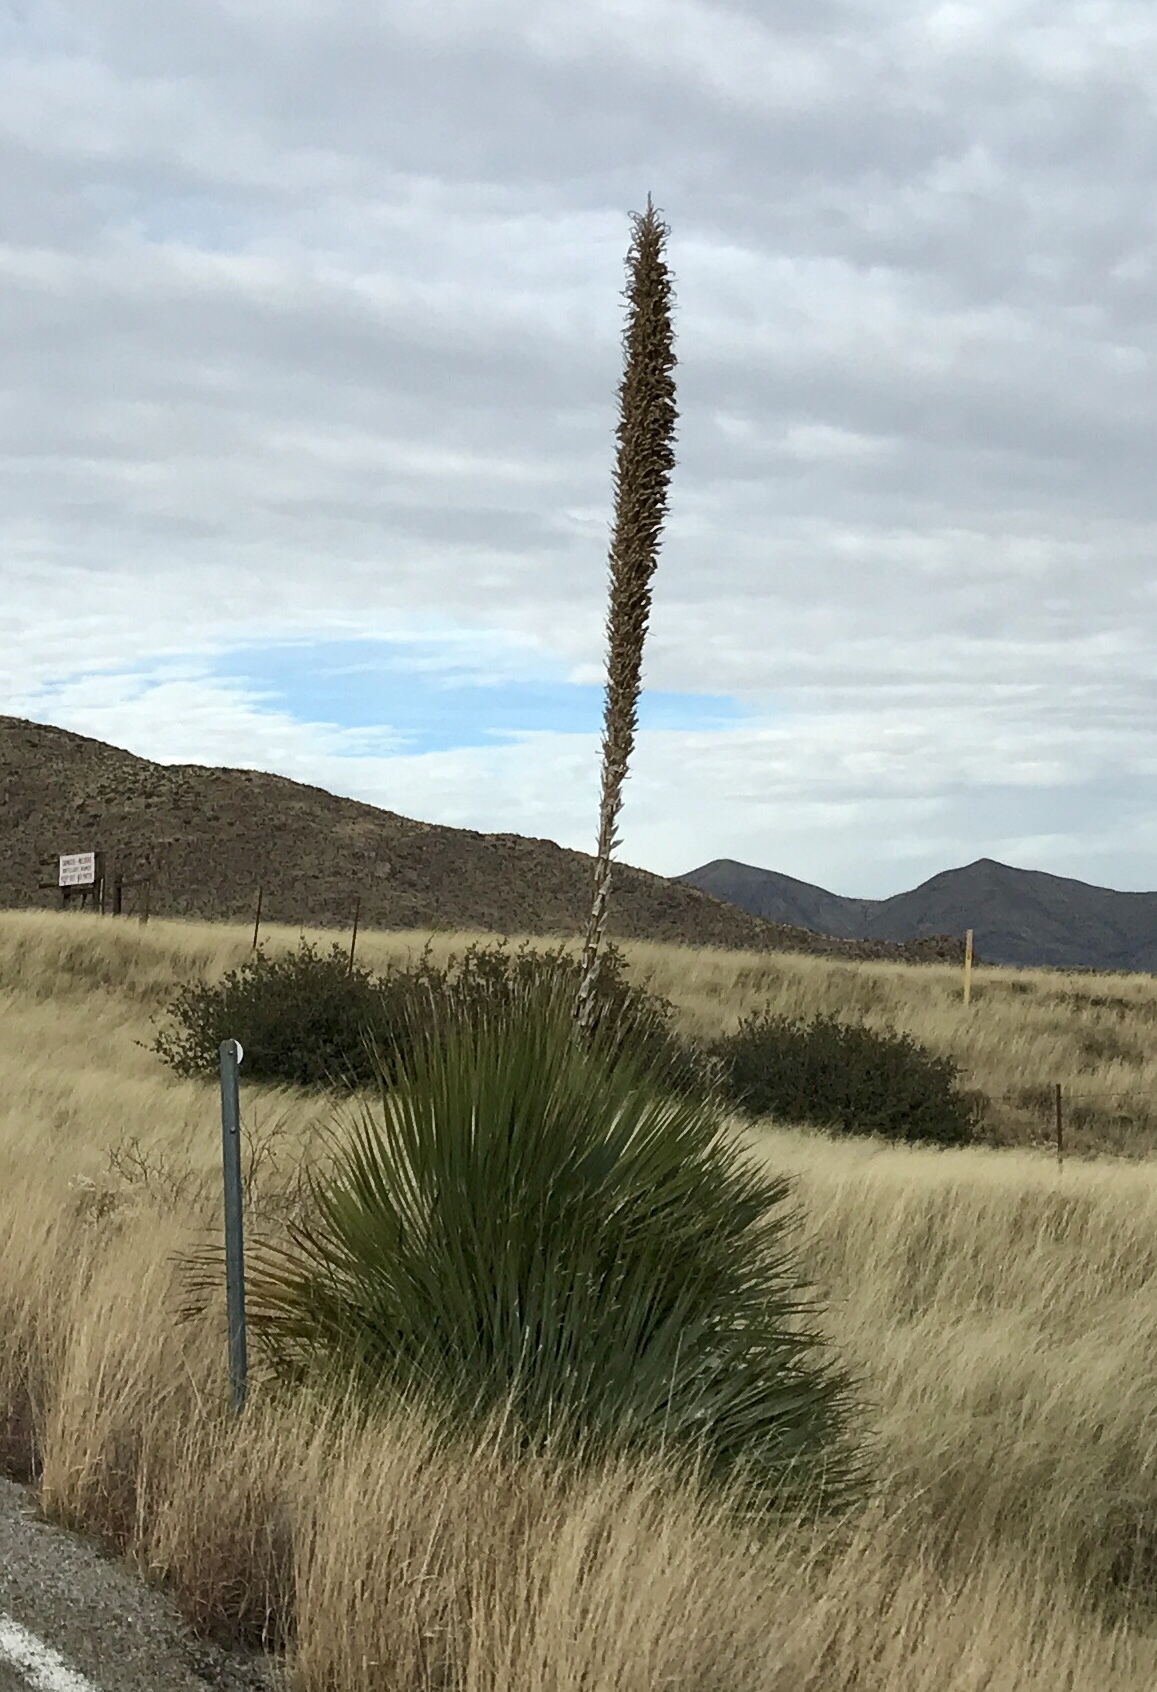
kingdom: Plantae
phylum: Tracheophyta
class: Liliopsida
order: Asparagales
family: Asparagaceae
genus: Dasylirion
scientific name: Dasylirion wheeleri
